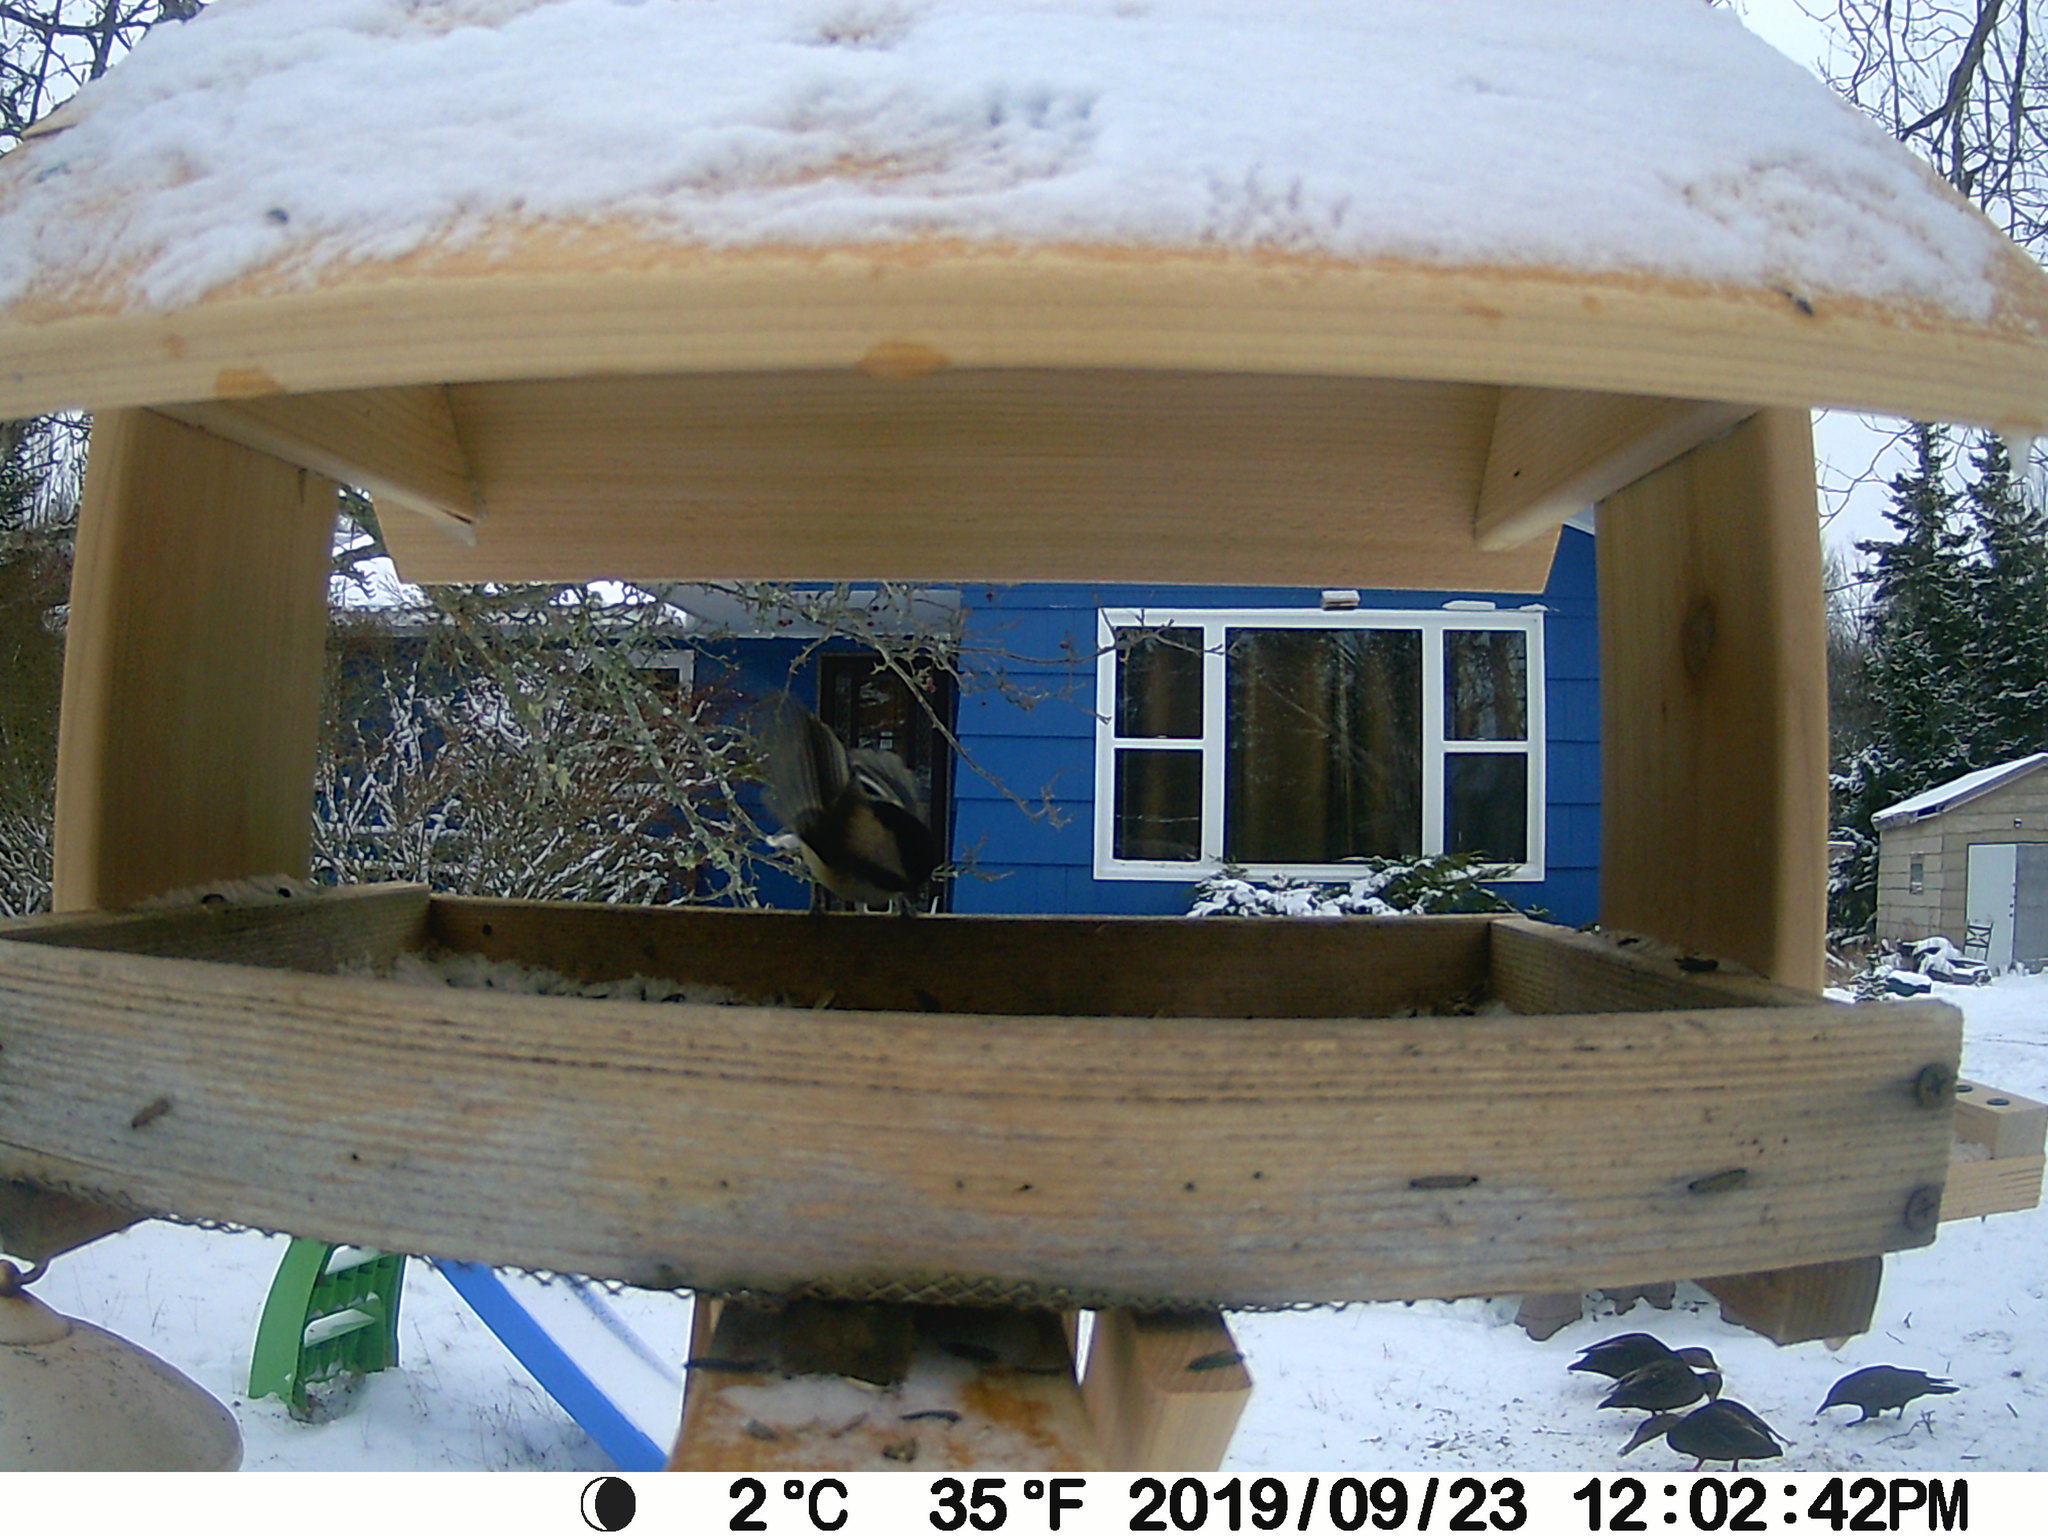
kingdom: Animalia
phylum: Chordata
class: Aves
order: Anseriformes
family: Anatidae
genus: Anas
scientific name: Anas rubripes
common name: American black duck
